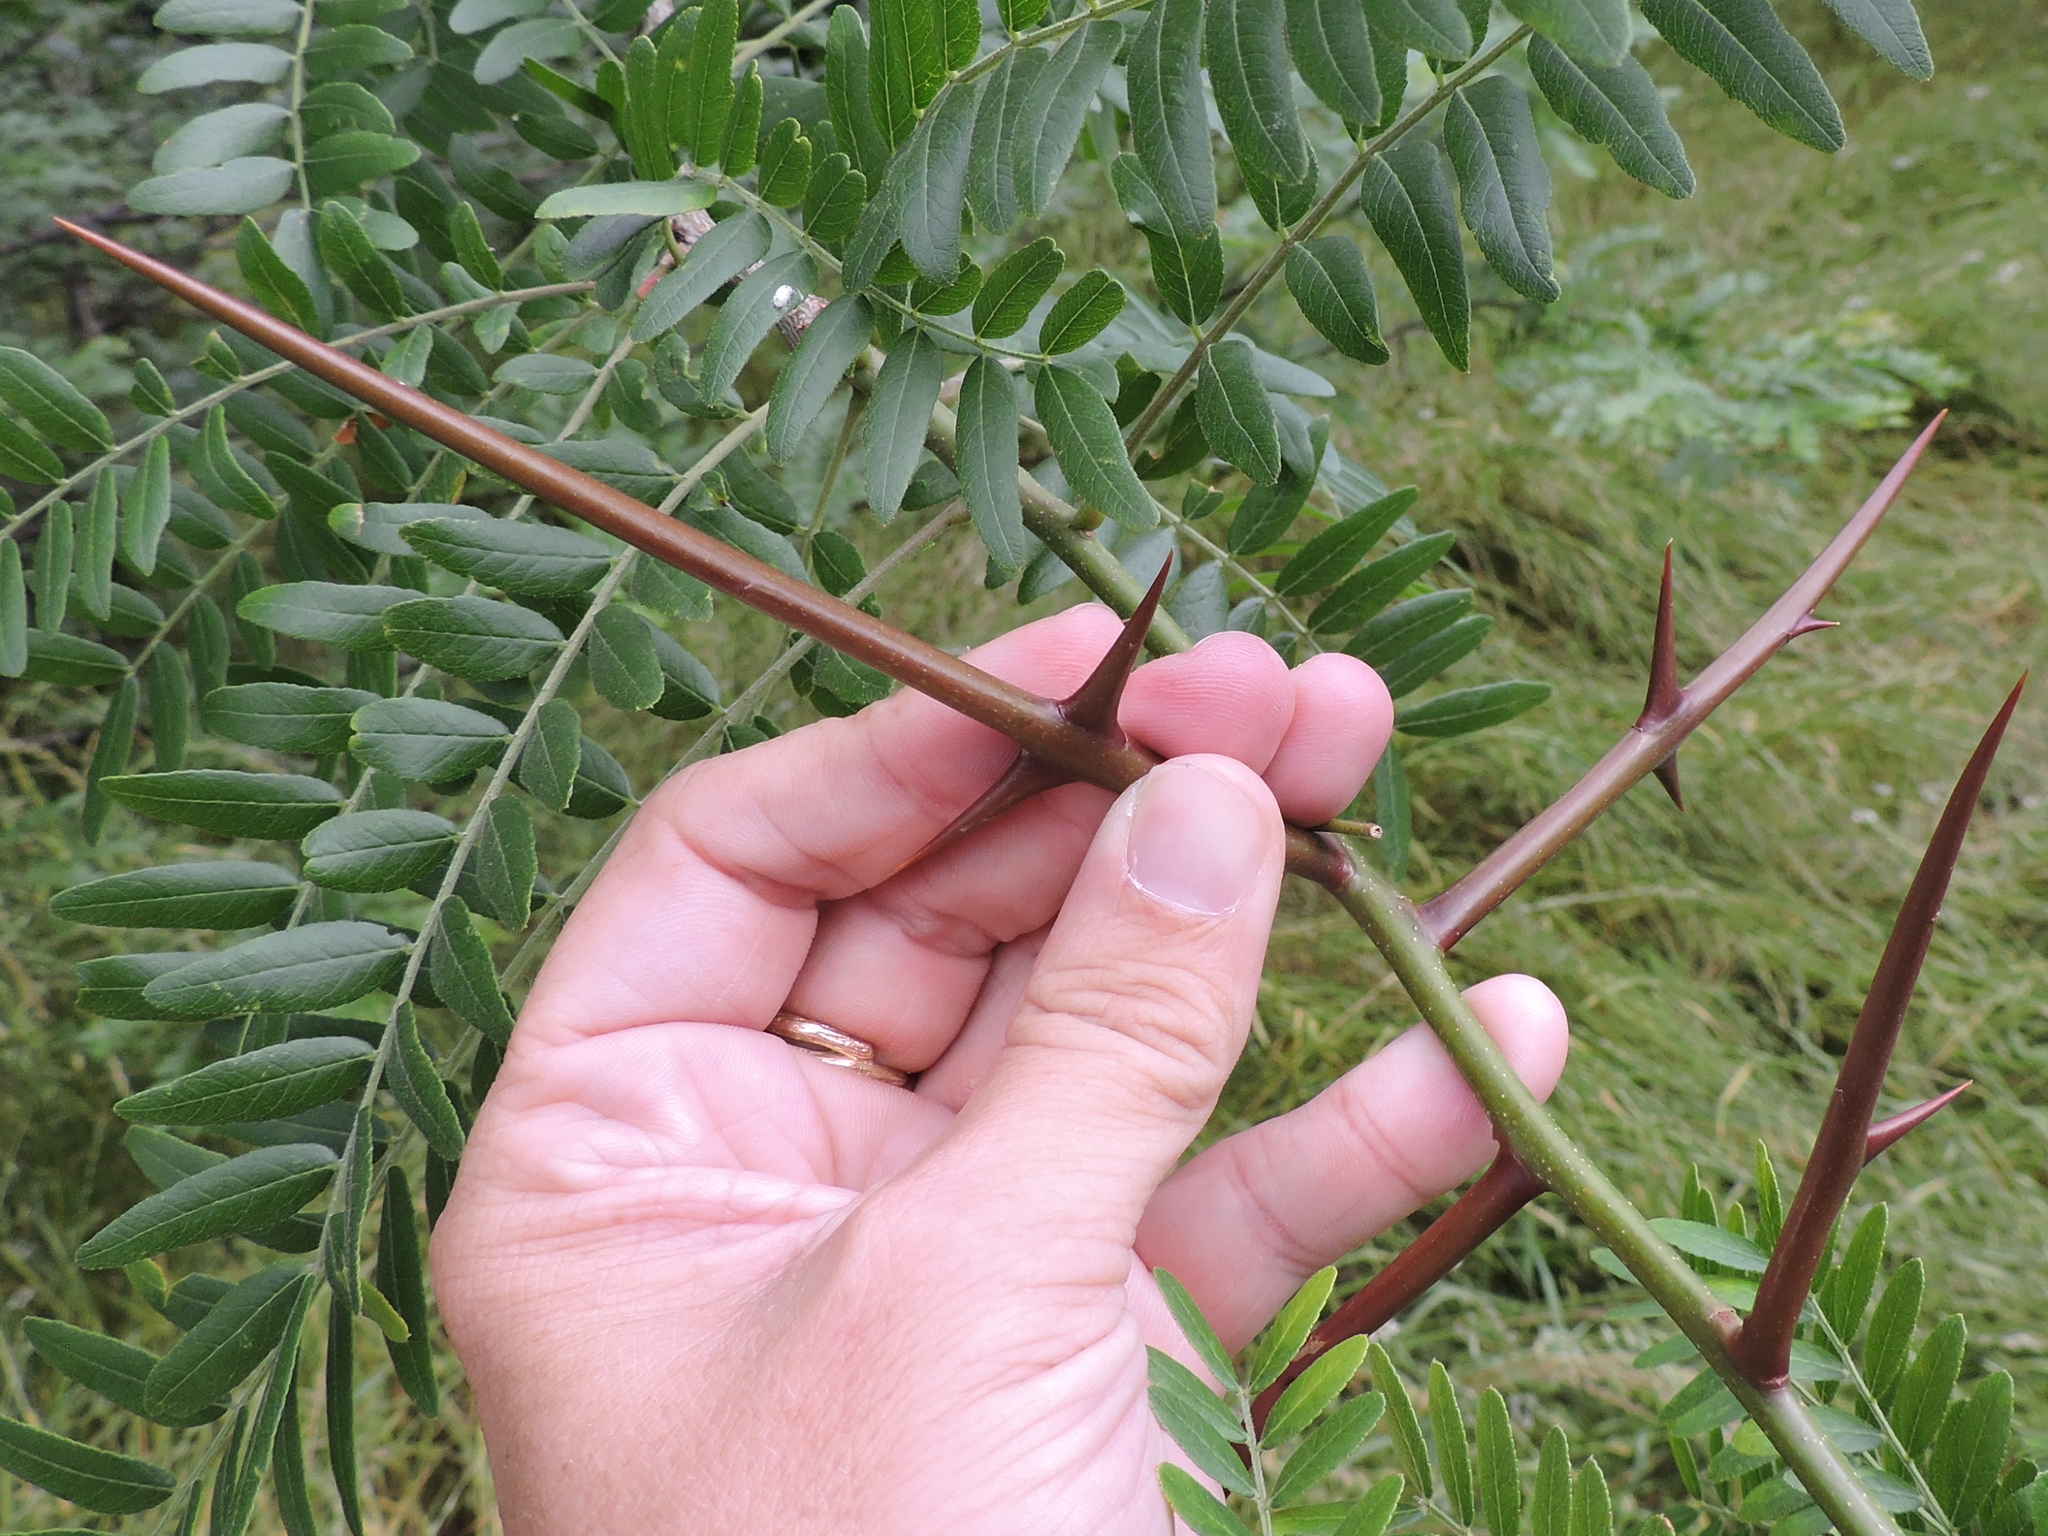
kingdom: Plantae
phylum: Tracheophyta
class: Magnoliopsida
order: Fabales
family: Fabaceae
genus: Gleditsia
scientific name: Gleditsia triacanthos
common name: Common honeylocust
